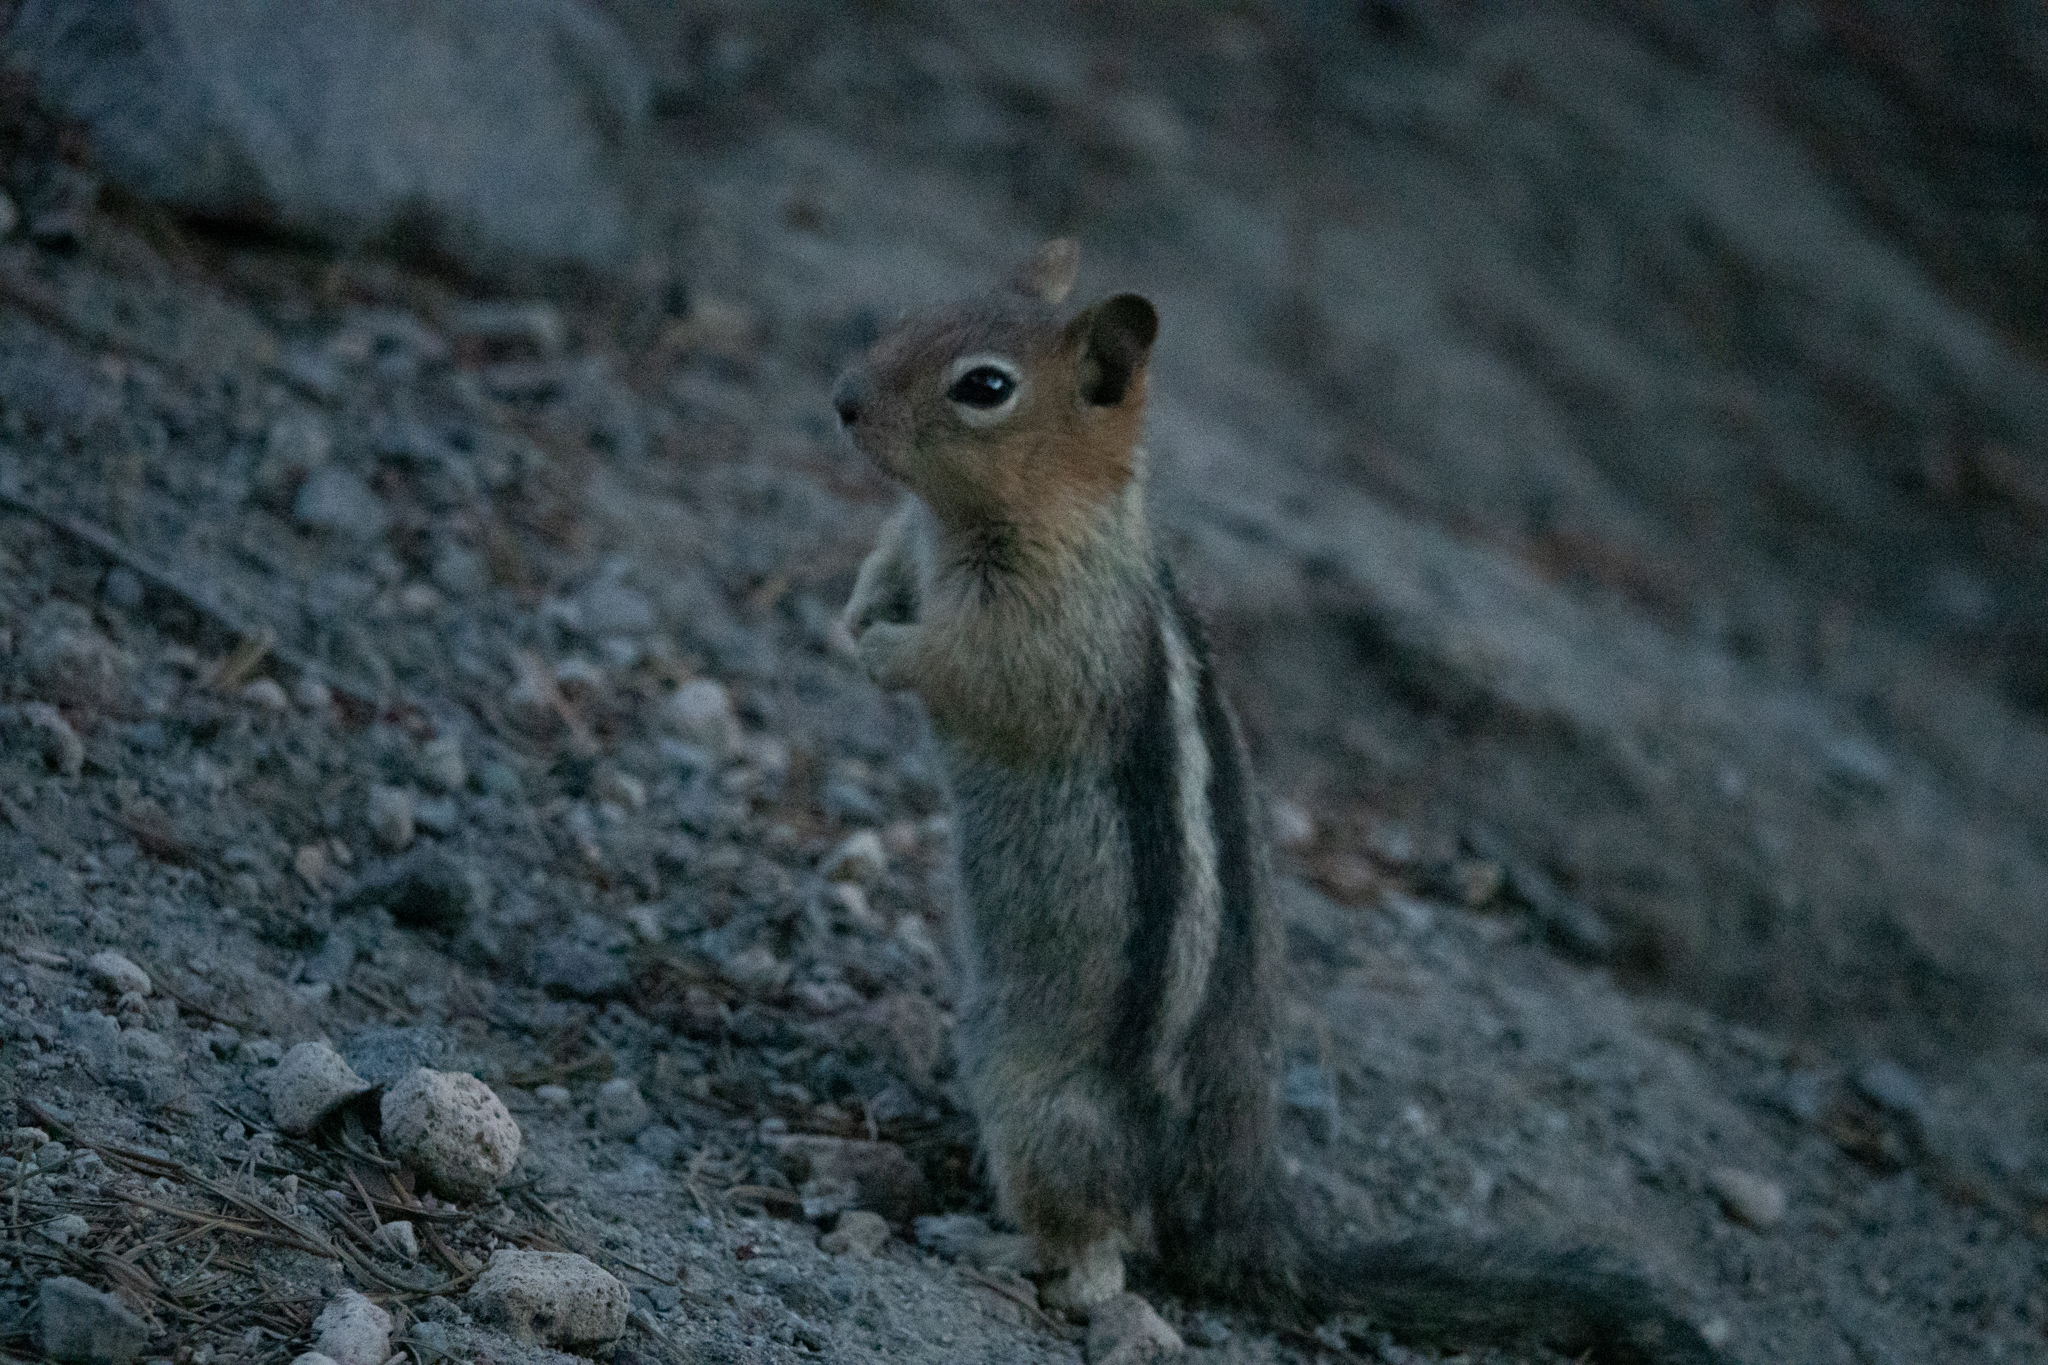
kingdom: Animalia
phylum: Chordata
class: Mammalia
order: Rodentia
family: Sciuridae
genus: Callospermophilus
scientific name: Callospermophilus lateralis
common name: Golden-mantled ground squirrel
